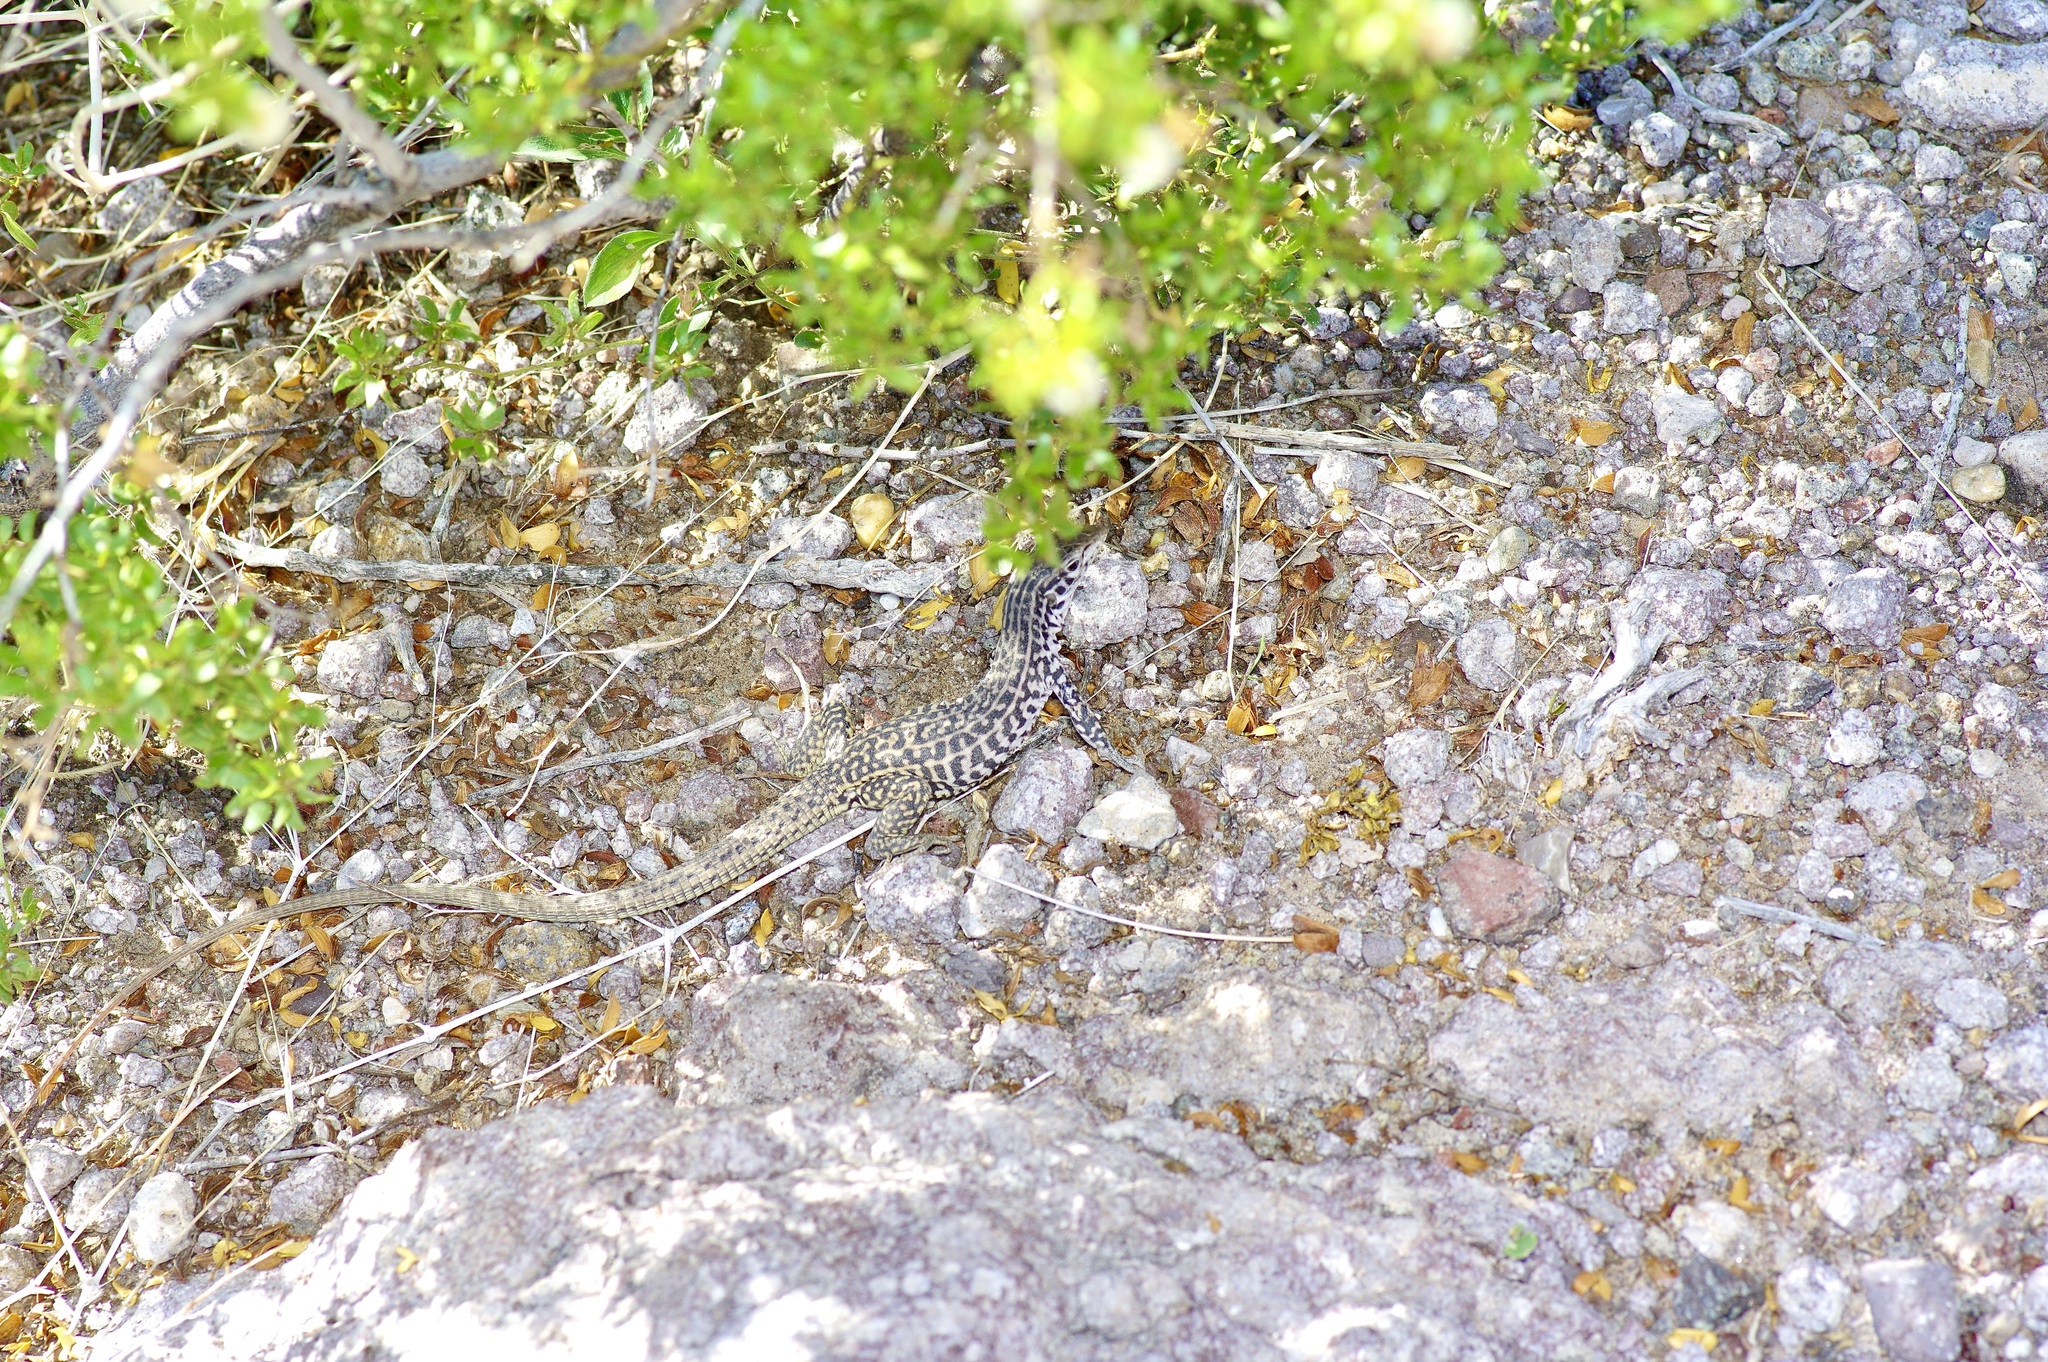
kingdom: Animalia
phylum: Chordata
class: Squamata
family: Teiidae
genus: Aspidoscelis
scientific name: Aspidoscelis tesselatus
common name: Common checkered whiptail [tesselata]
